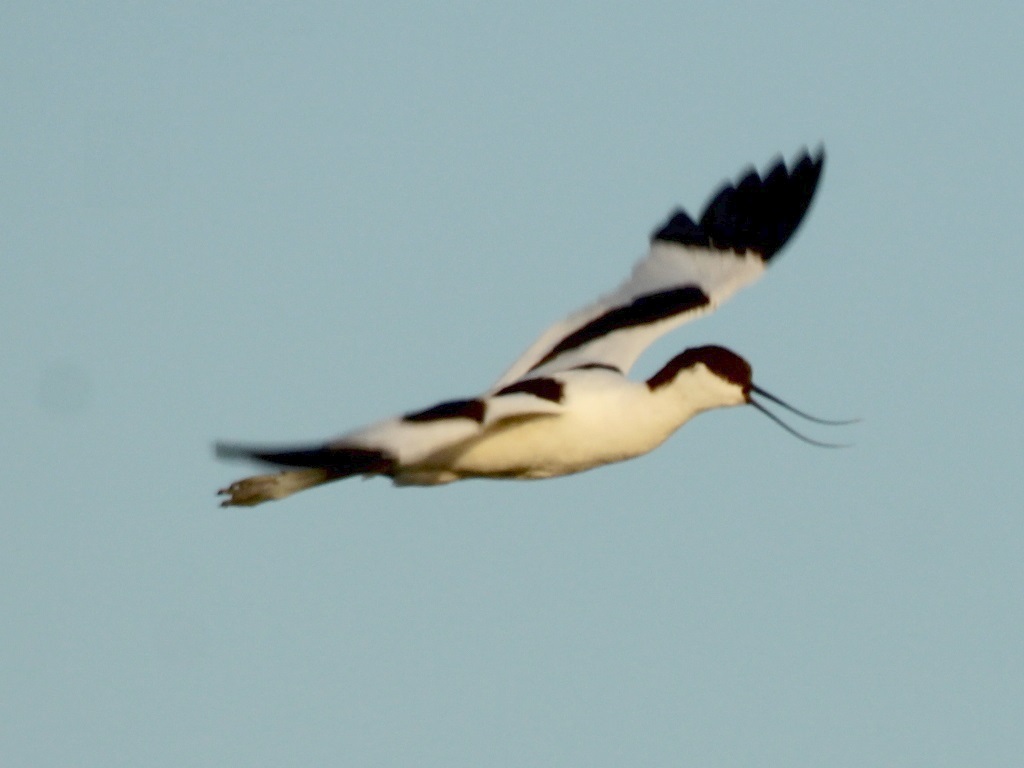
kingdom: Animalia
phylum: Chordata
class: Aves
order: Charadriiformes
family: Recurvirostridae
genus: Recurvirostra
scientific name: Recurvirostra avosetta
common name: Pied avocet
